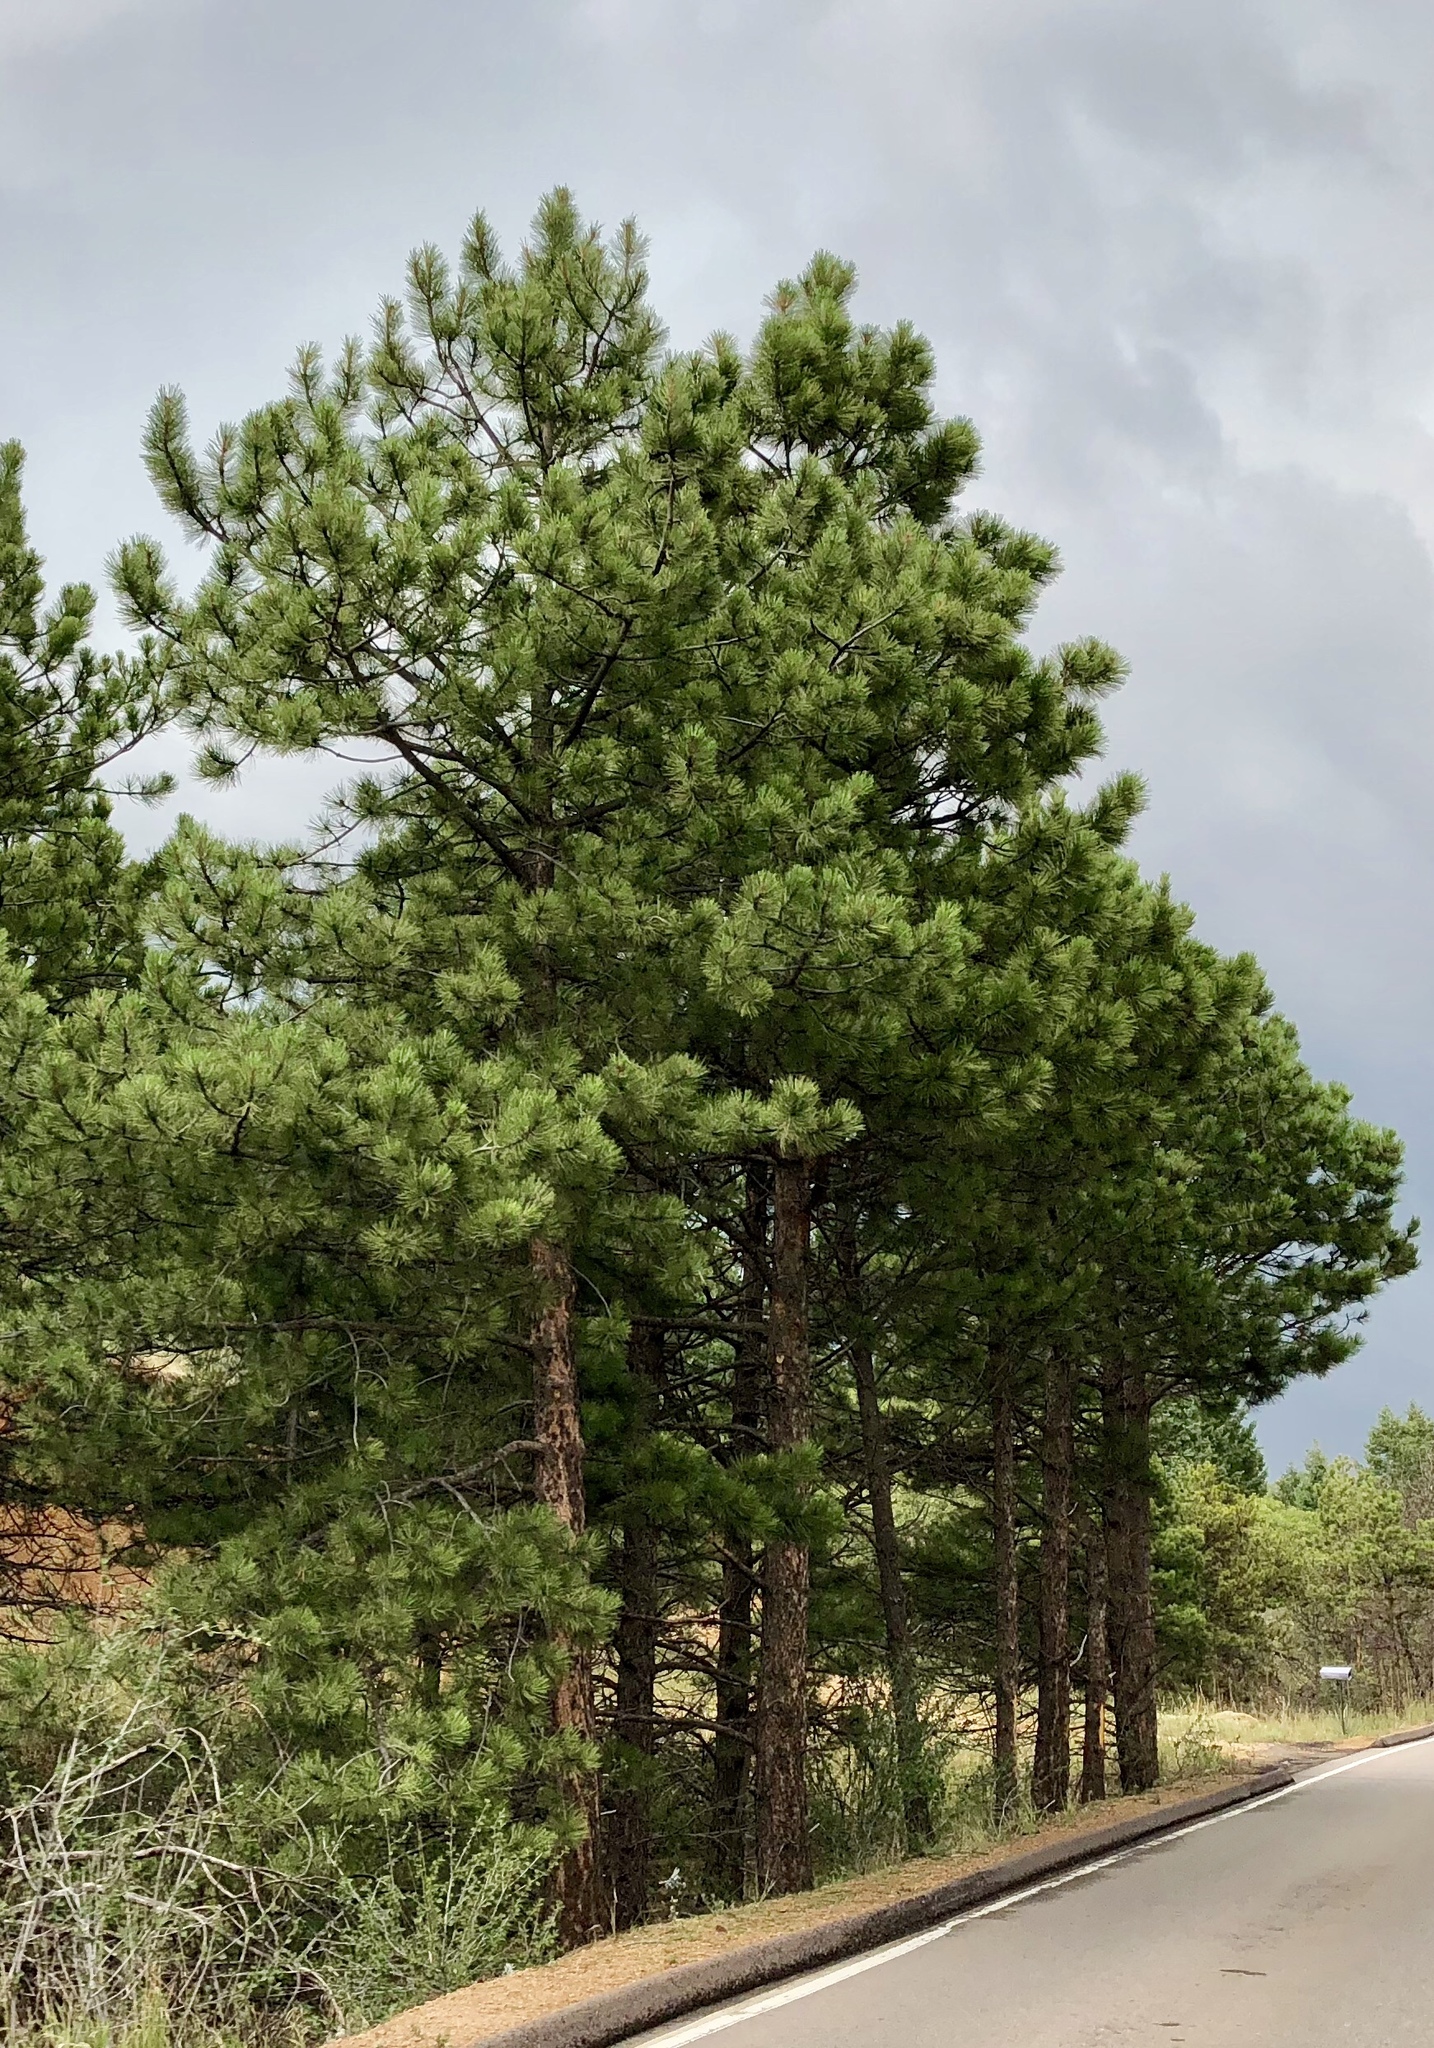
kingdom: Plantae
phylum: Tracheophyta
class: Pinopsida
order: Pinales
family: Pinaceae
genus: Pinus
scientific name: Pinus ponderosa
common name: Western yellow-pine
